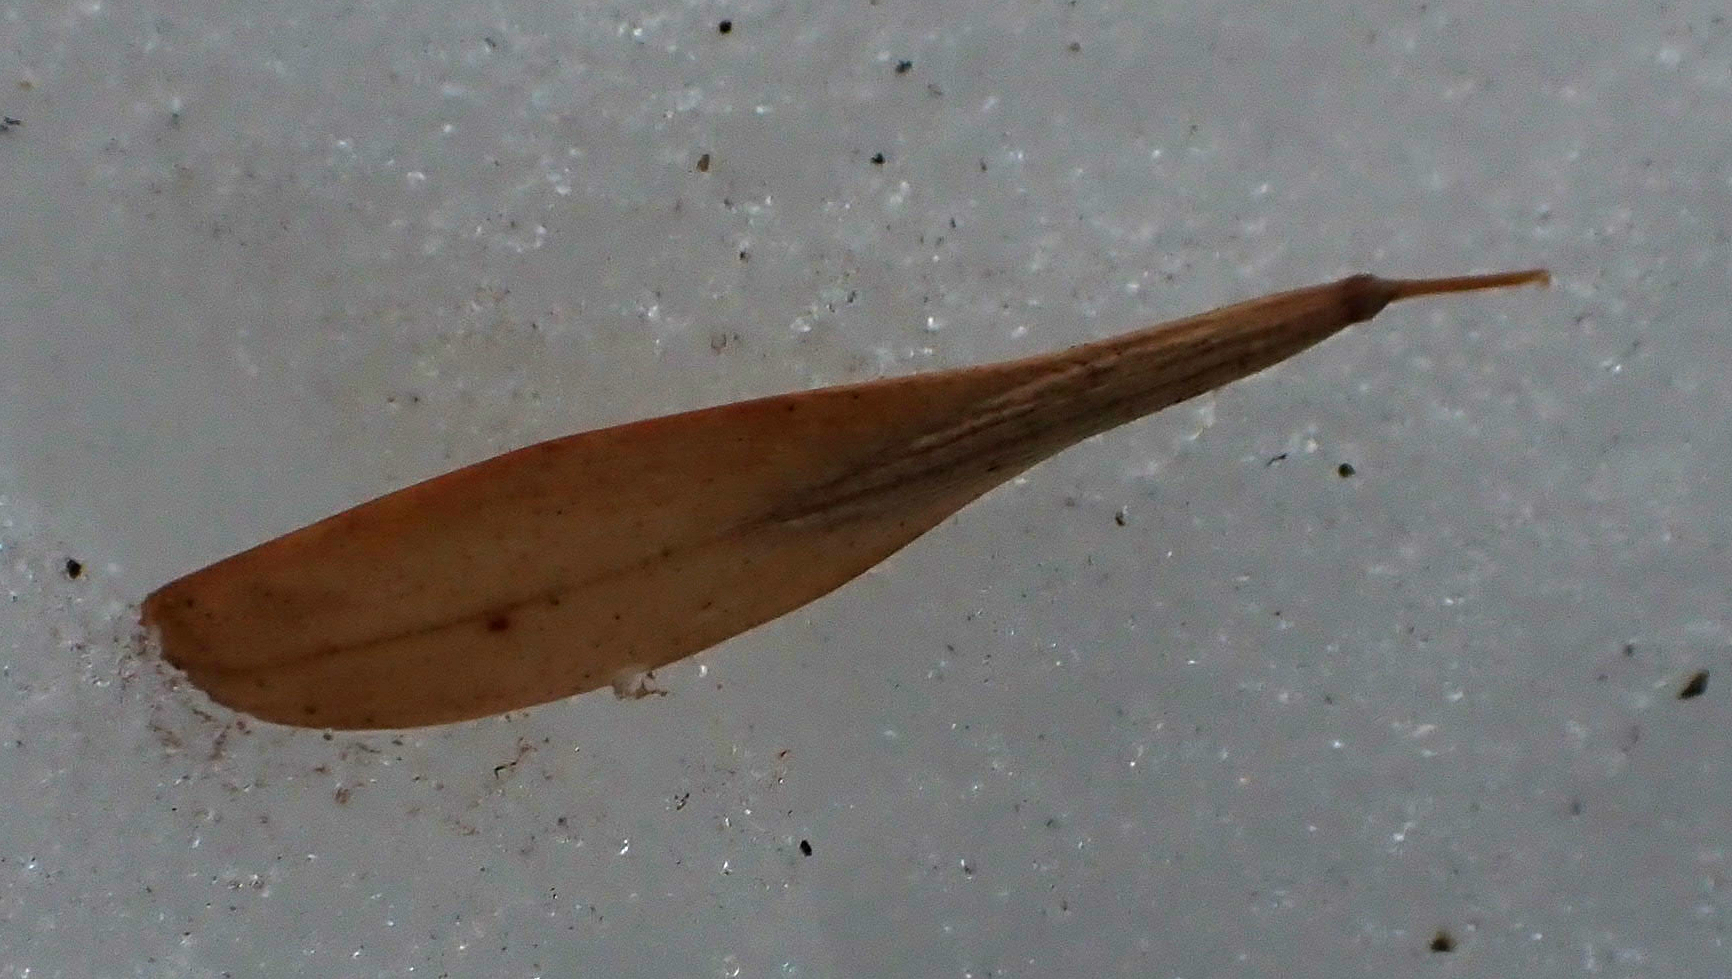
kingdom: Plantae
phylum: Tracheophyta
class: Magnoliopsida
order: Lamiales
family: Oleaceae
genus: Fraxinus
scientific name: Fraxinus pennsylvanica
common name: Green ash
